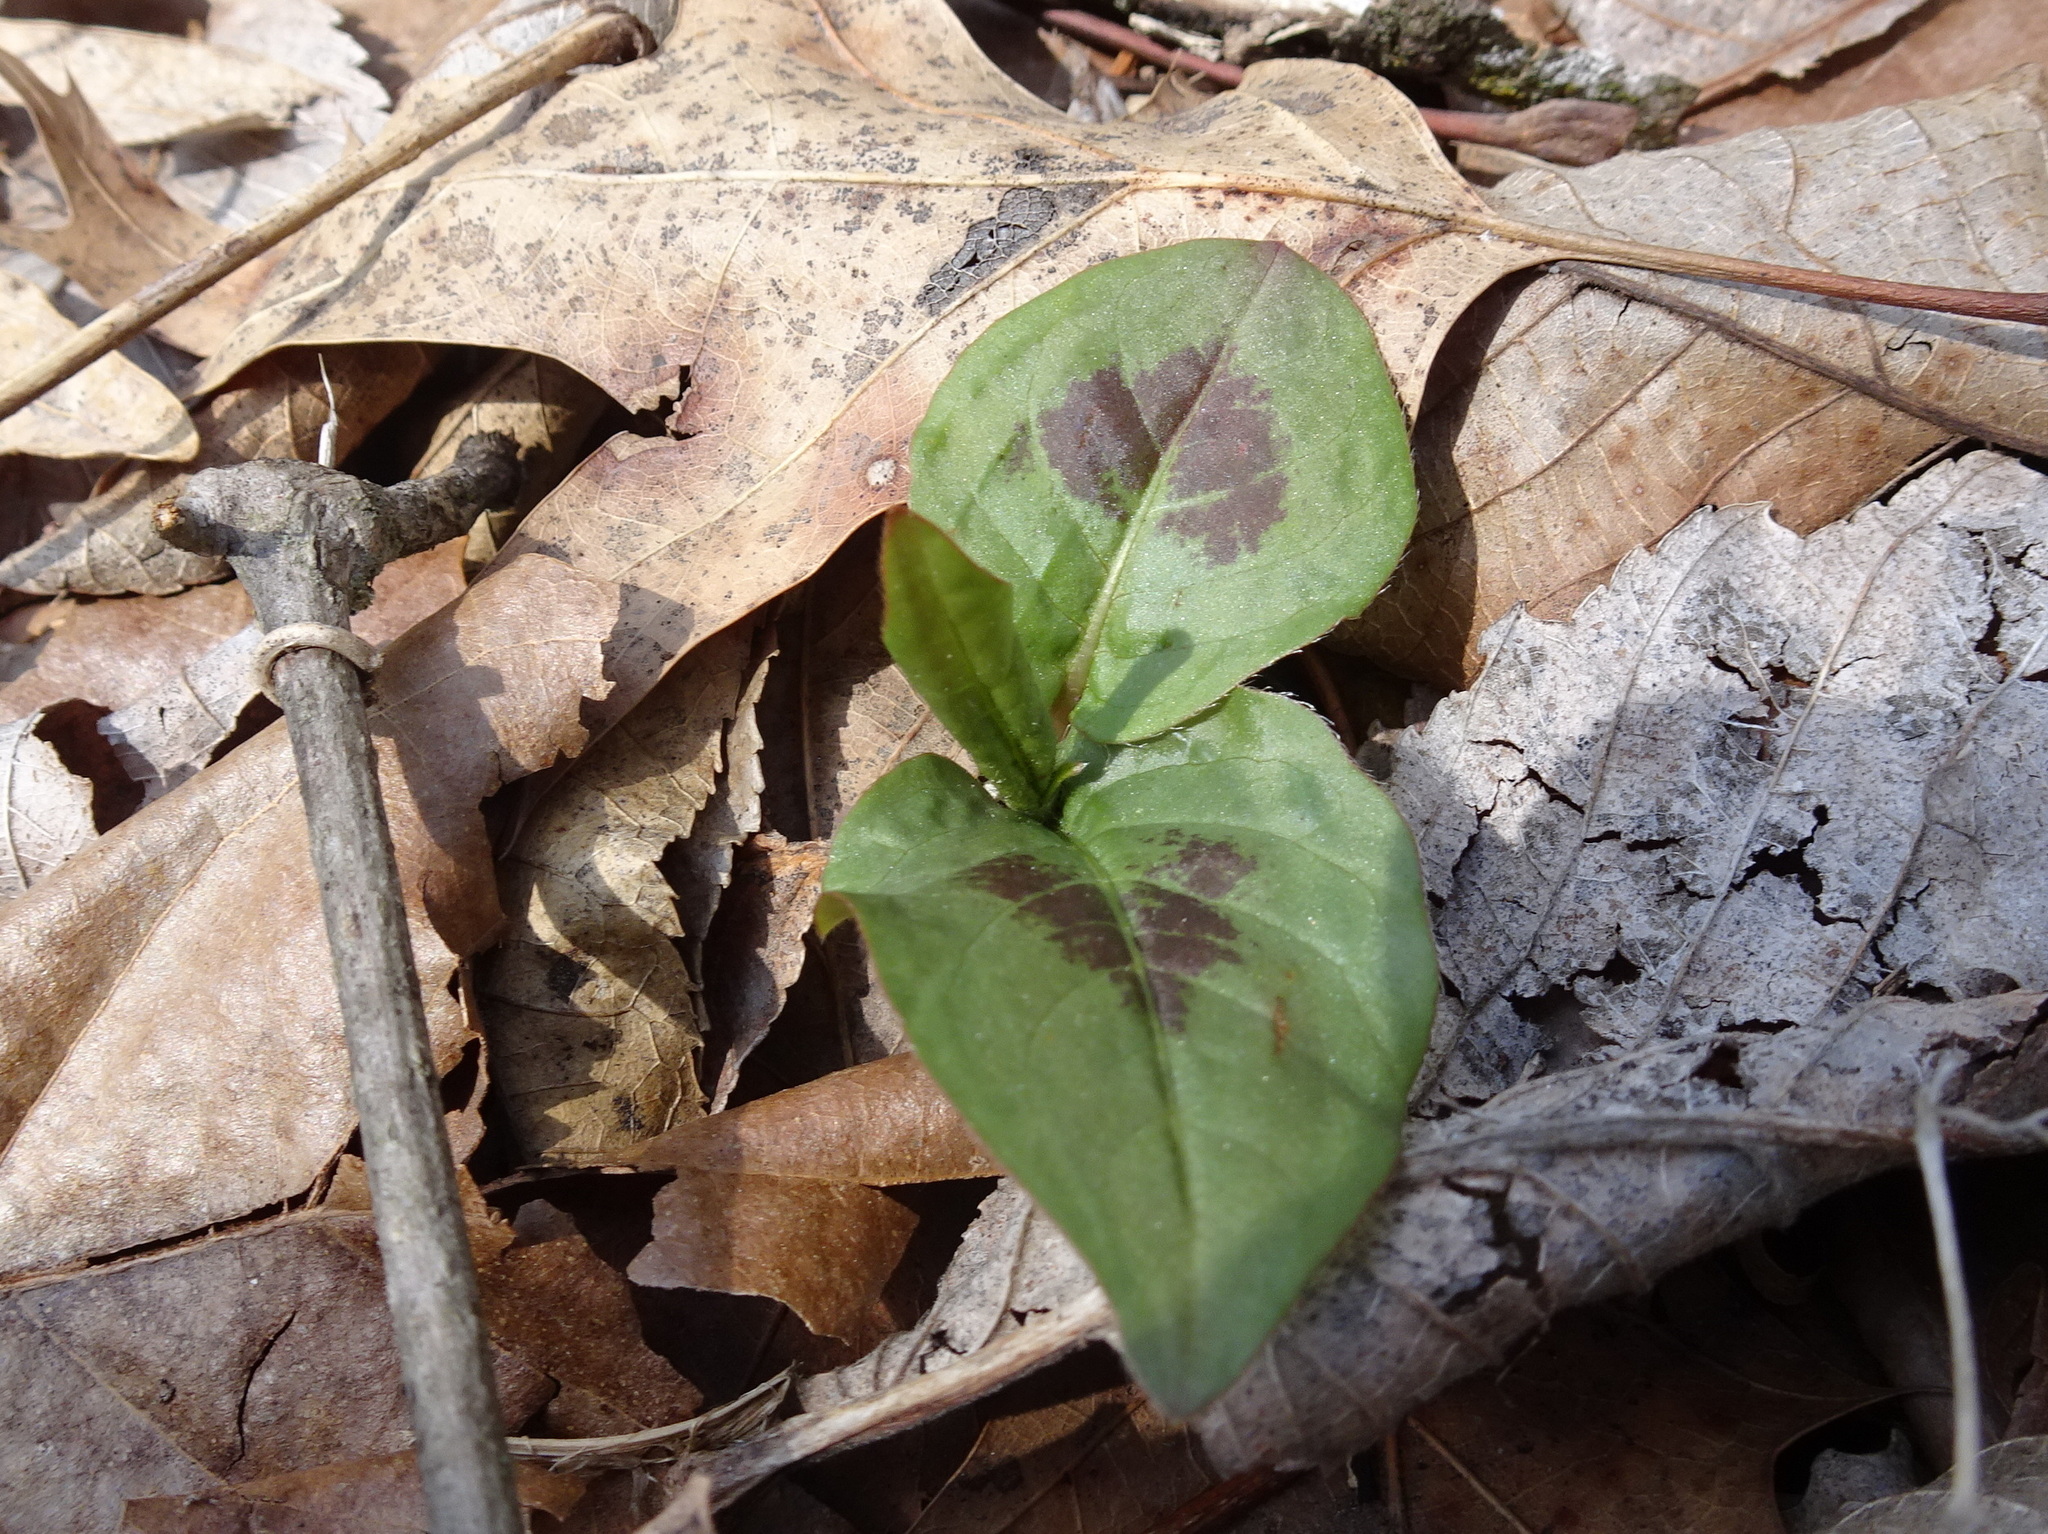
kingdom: Plantae
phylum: Tracheophyta
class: Magnoliopsida
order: Caryophyllales
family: Polygonaceae
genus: Persicaria
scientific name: Persicaria virginiana
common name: Jumpseed
